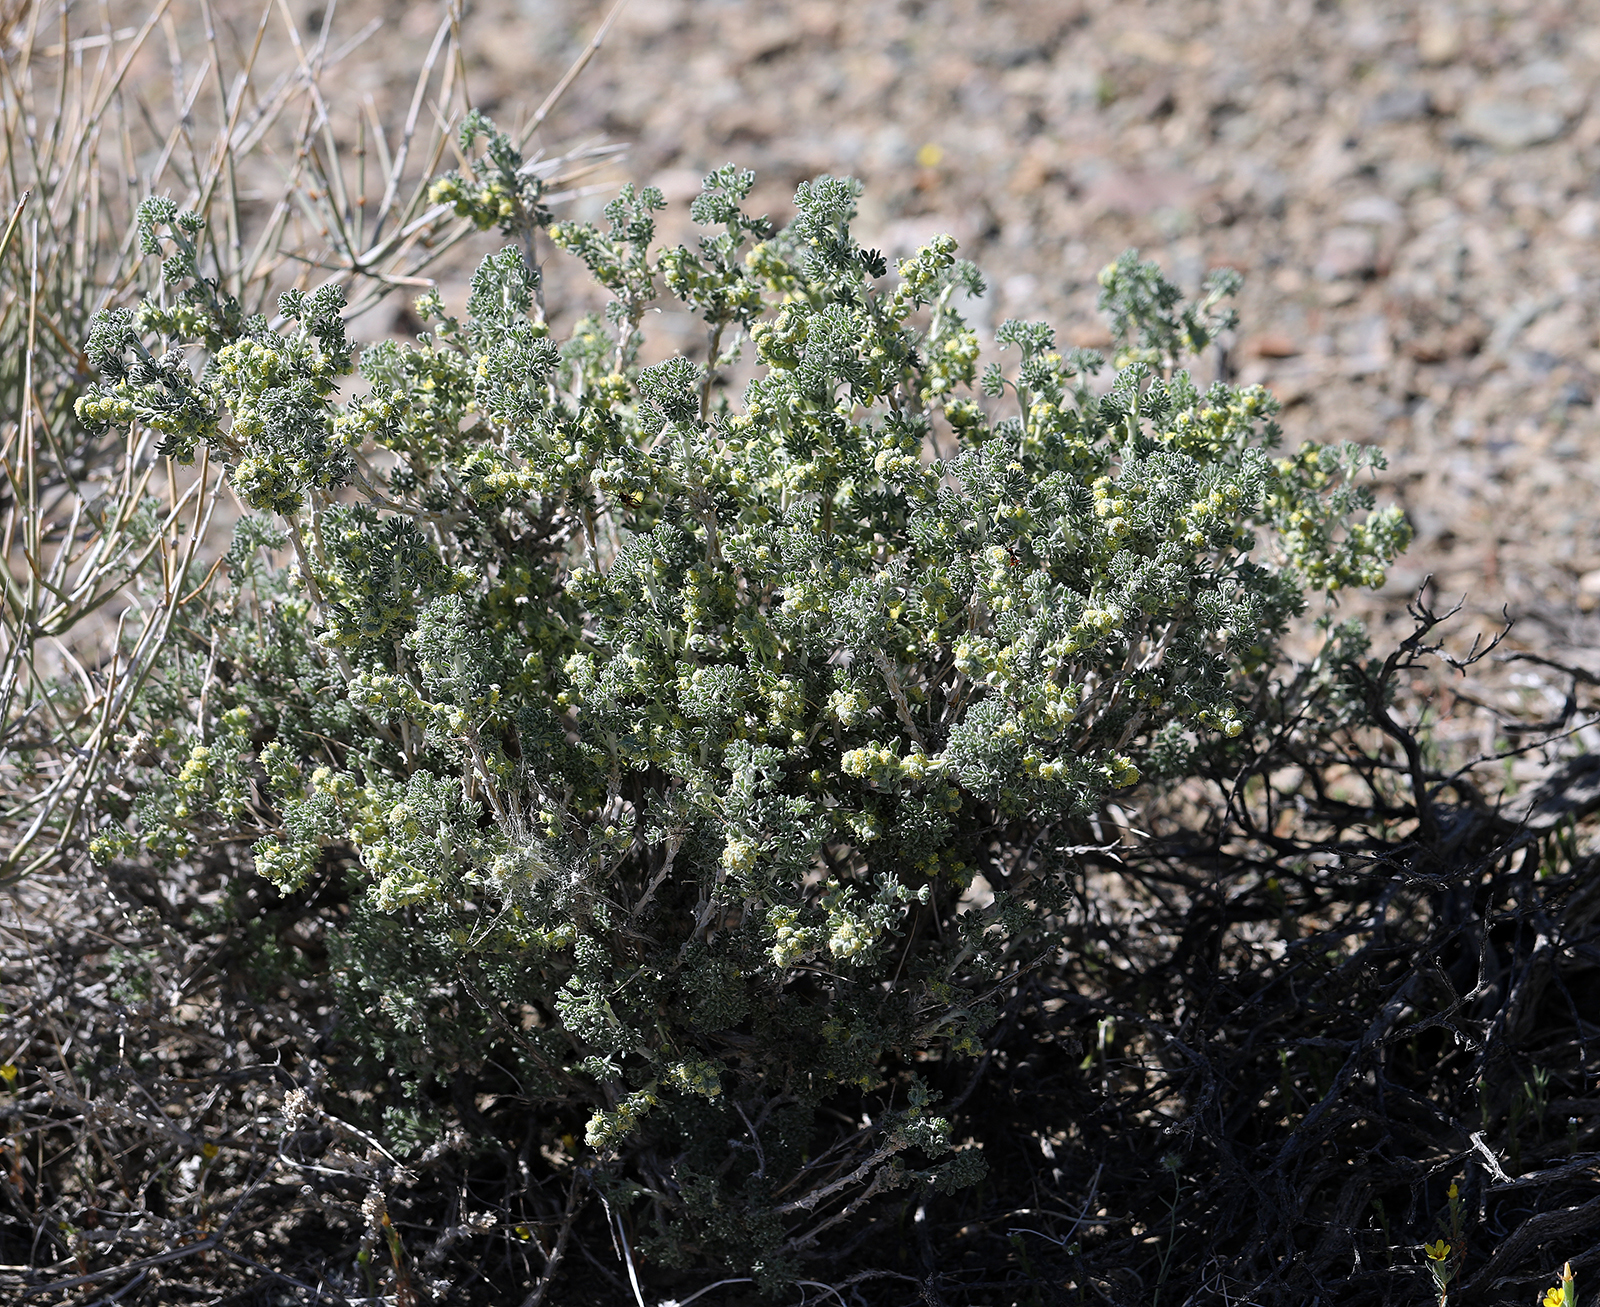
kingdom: Plantae
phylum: Tracheophyta
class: Magnoliopsida
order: Asterales
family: Asteraceae
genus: Artemisia
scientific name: Artemisia spinescens
